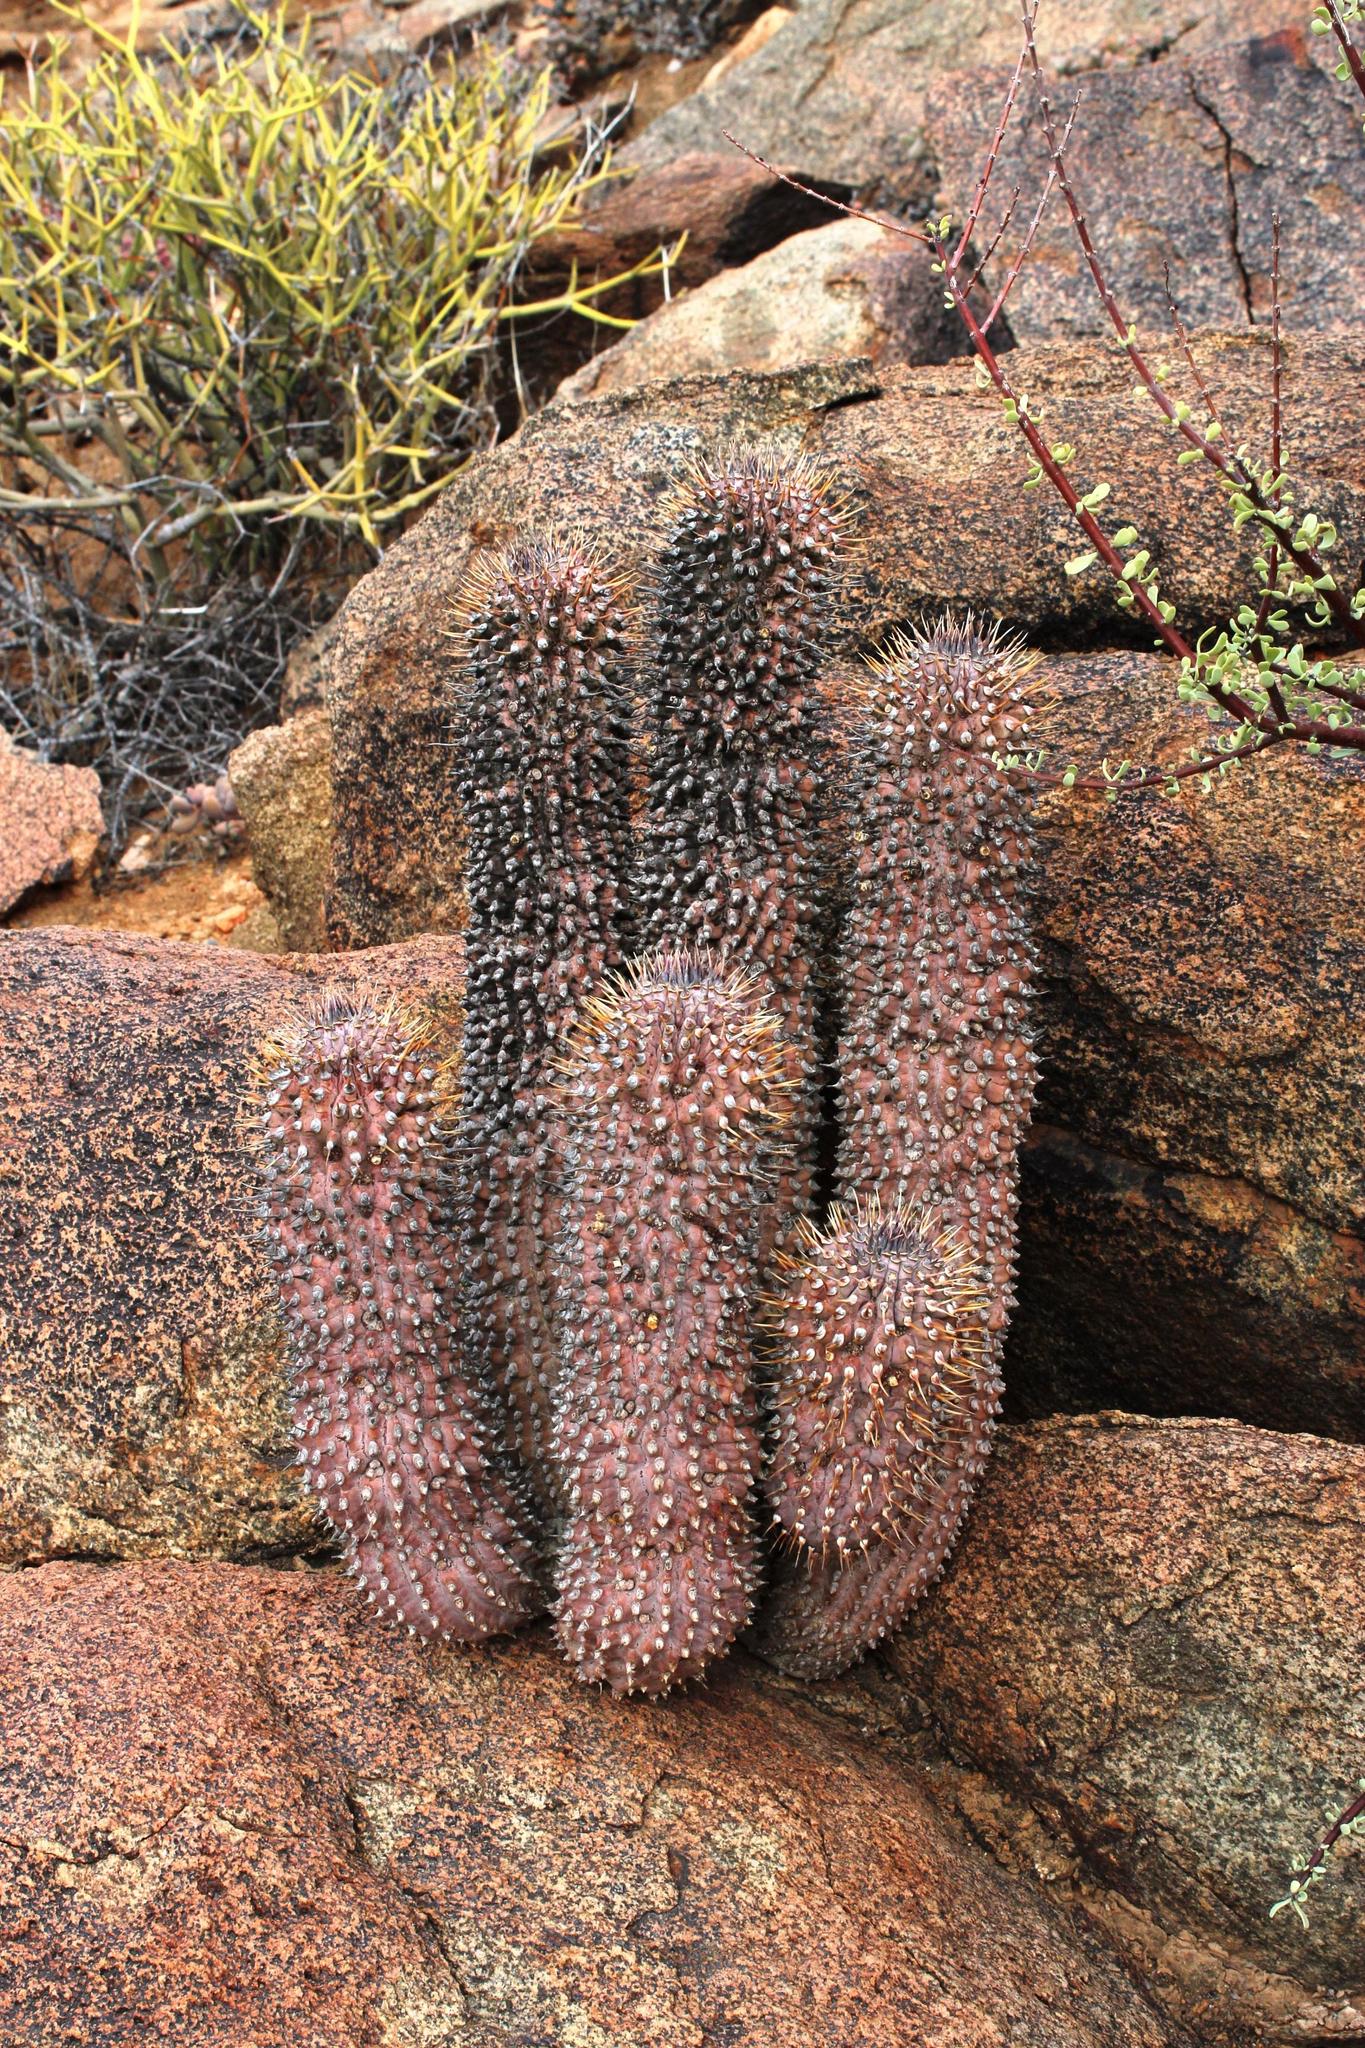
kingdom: Plantae
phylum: Tracheophyta
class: Magnoliopsida
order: Gentianales
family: Apocynaceae
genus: Ceropegia
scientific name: Ceropegia alstonii
